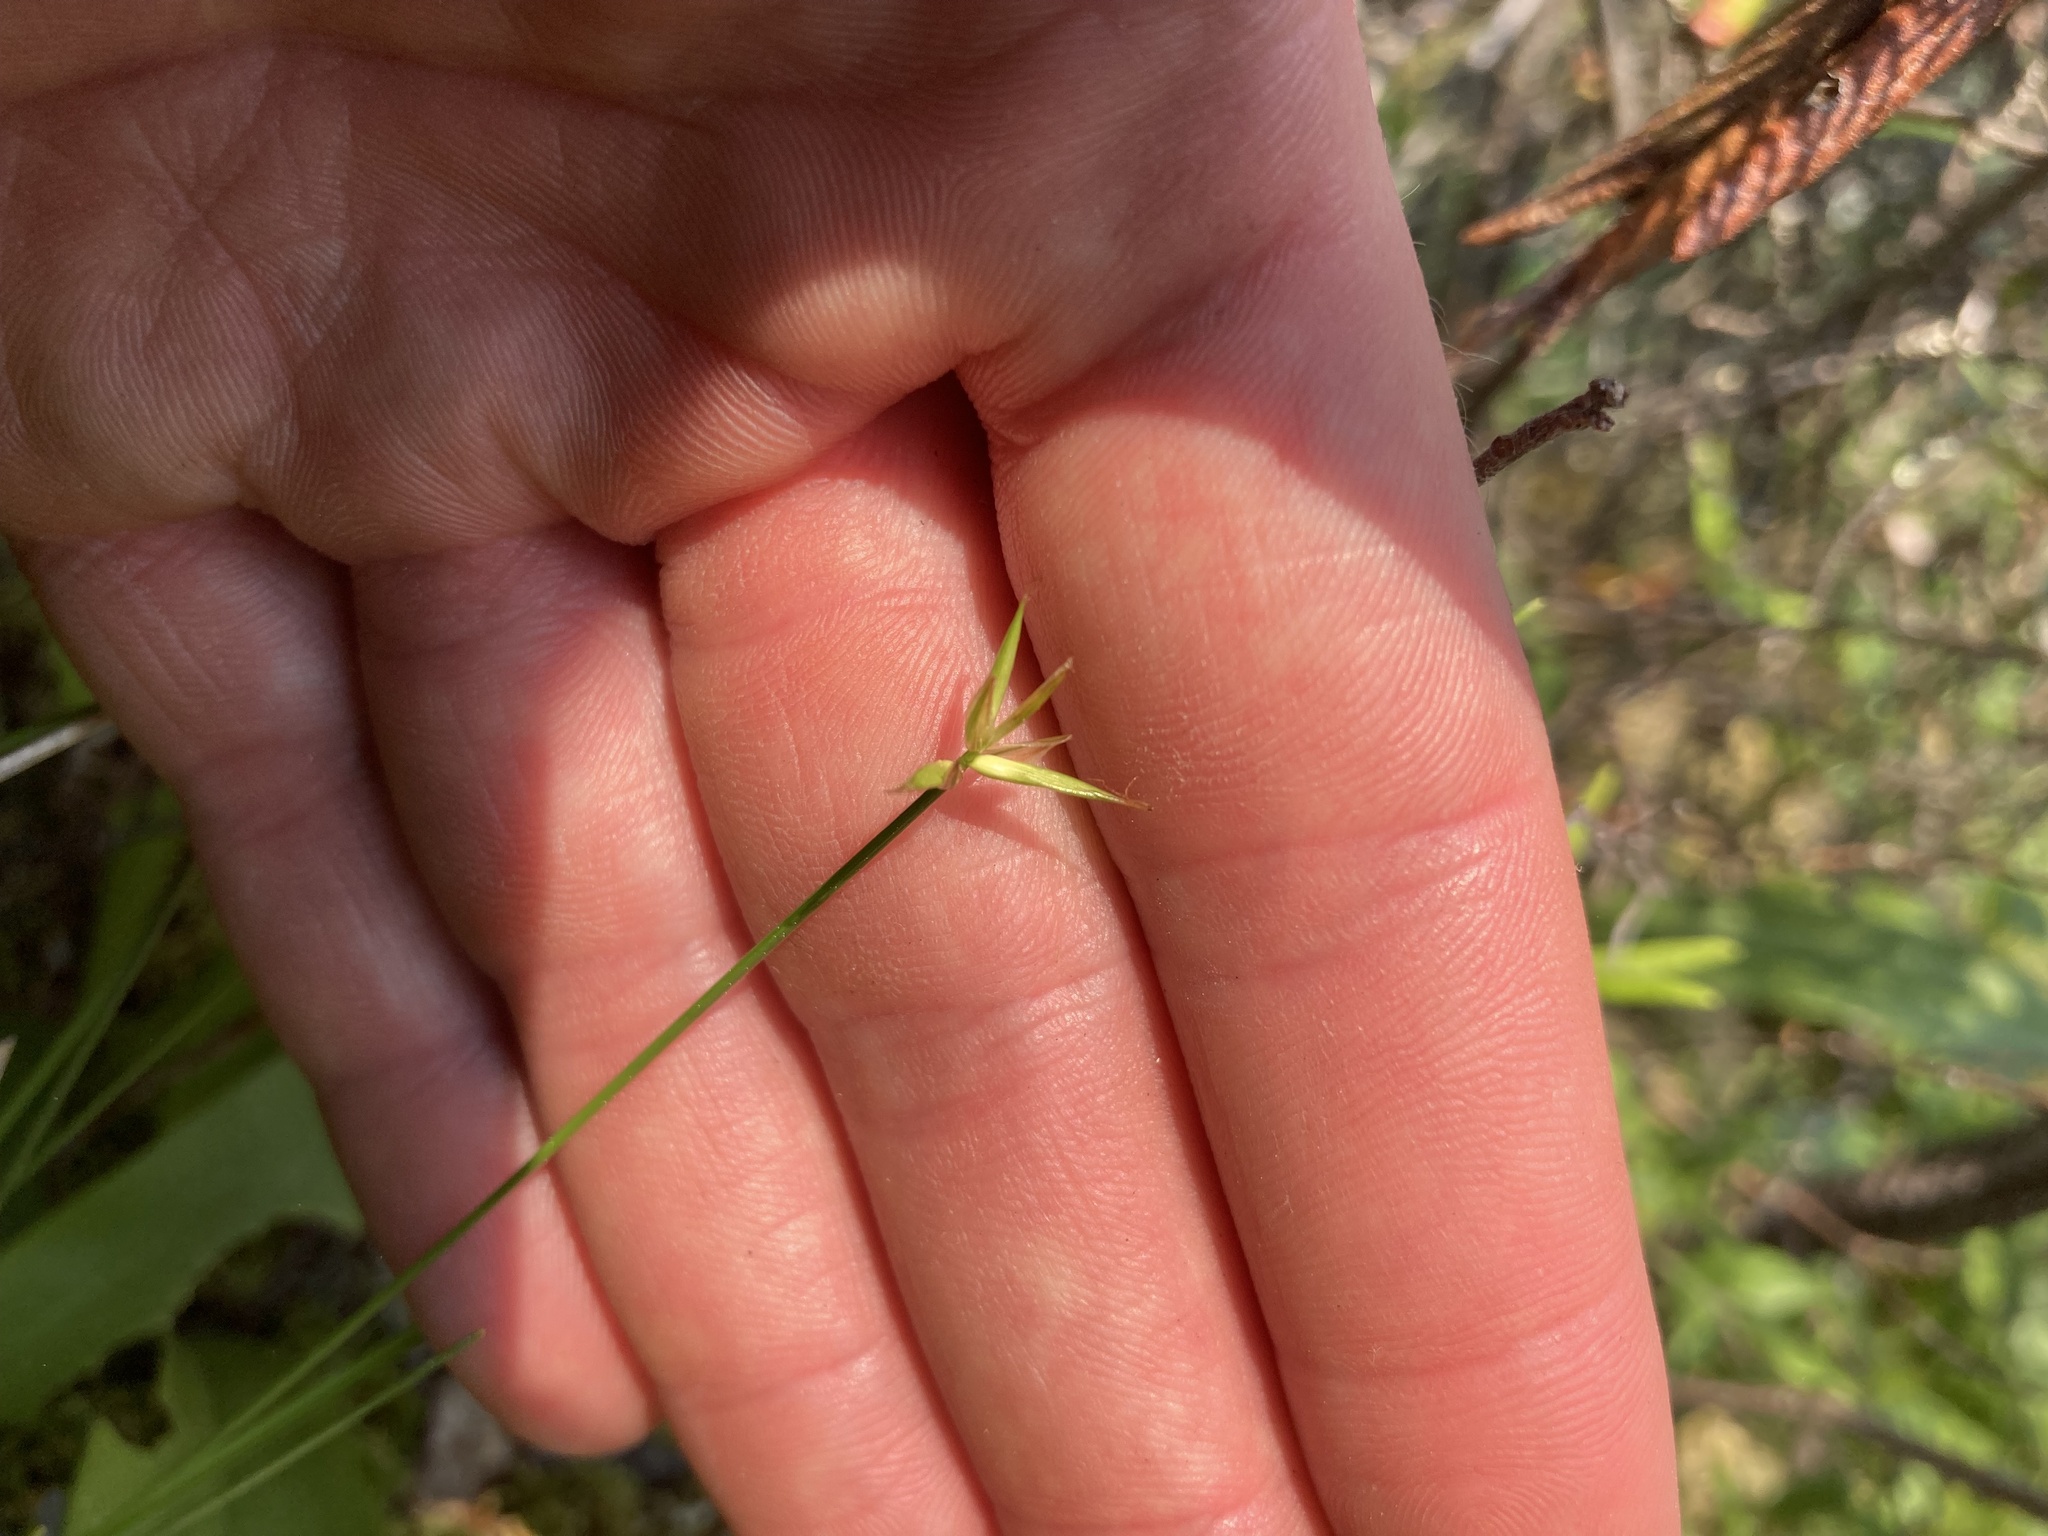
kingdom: Plantae
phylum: Tracheophyta
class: Liliopsida
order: Poales
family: Cyperaceae
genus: Carex
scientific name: Carex pauciflora
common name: Few-flowered sedge
